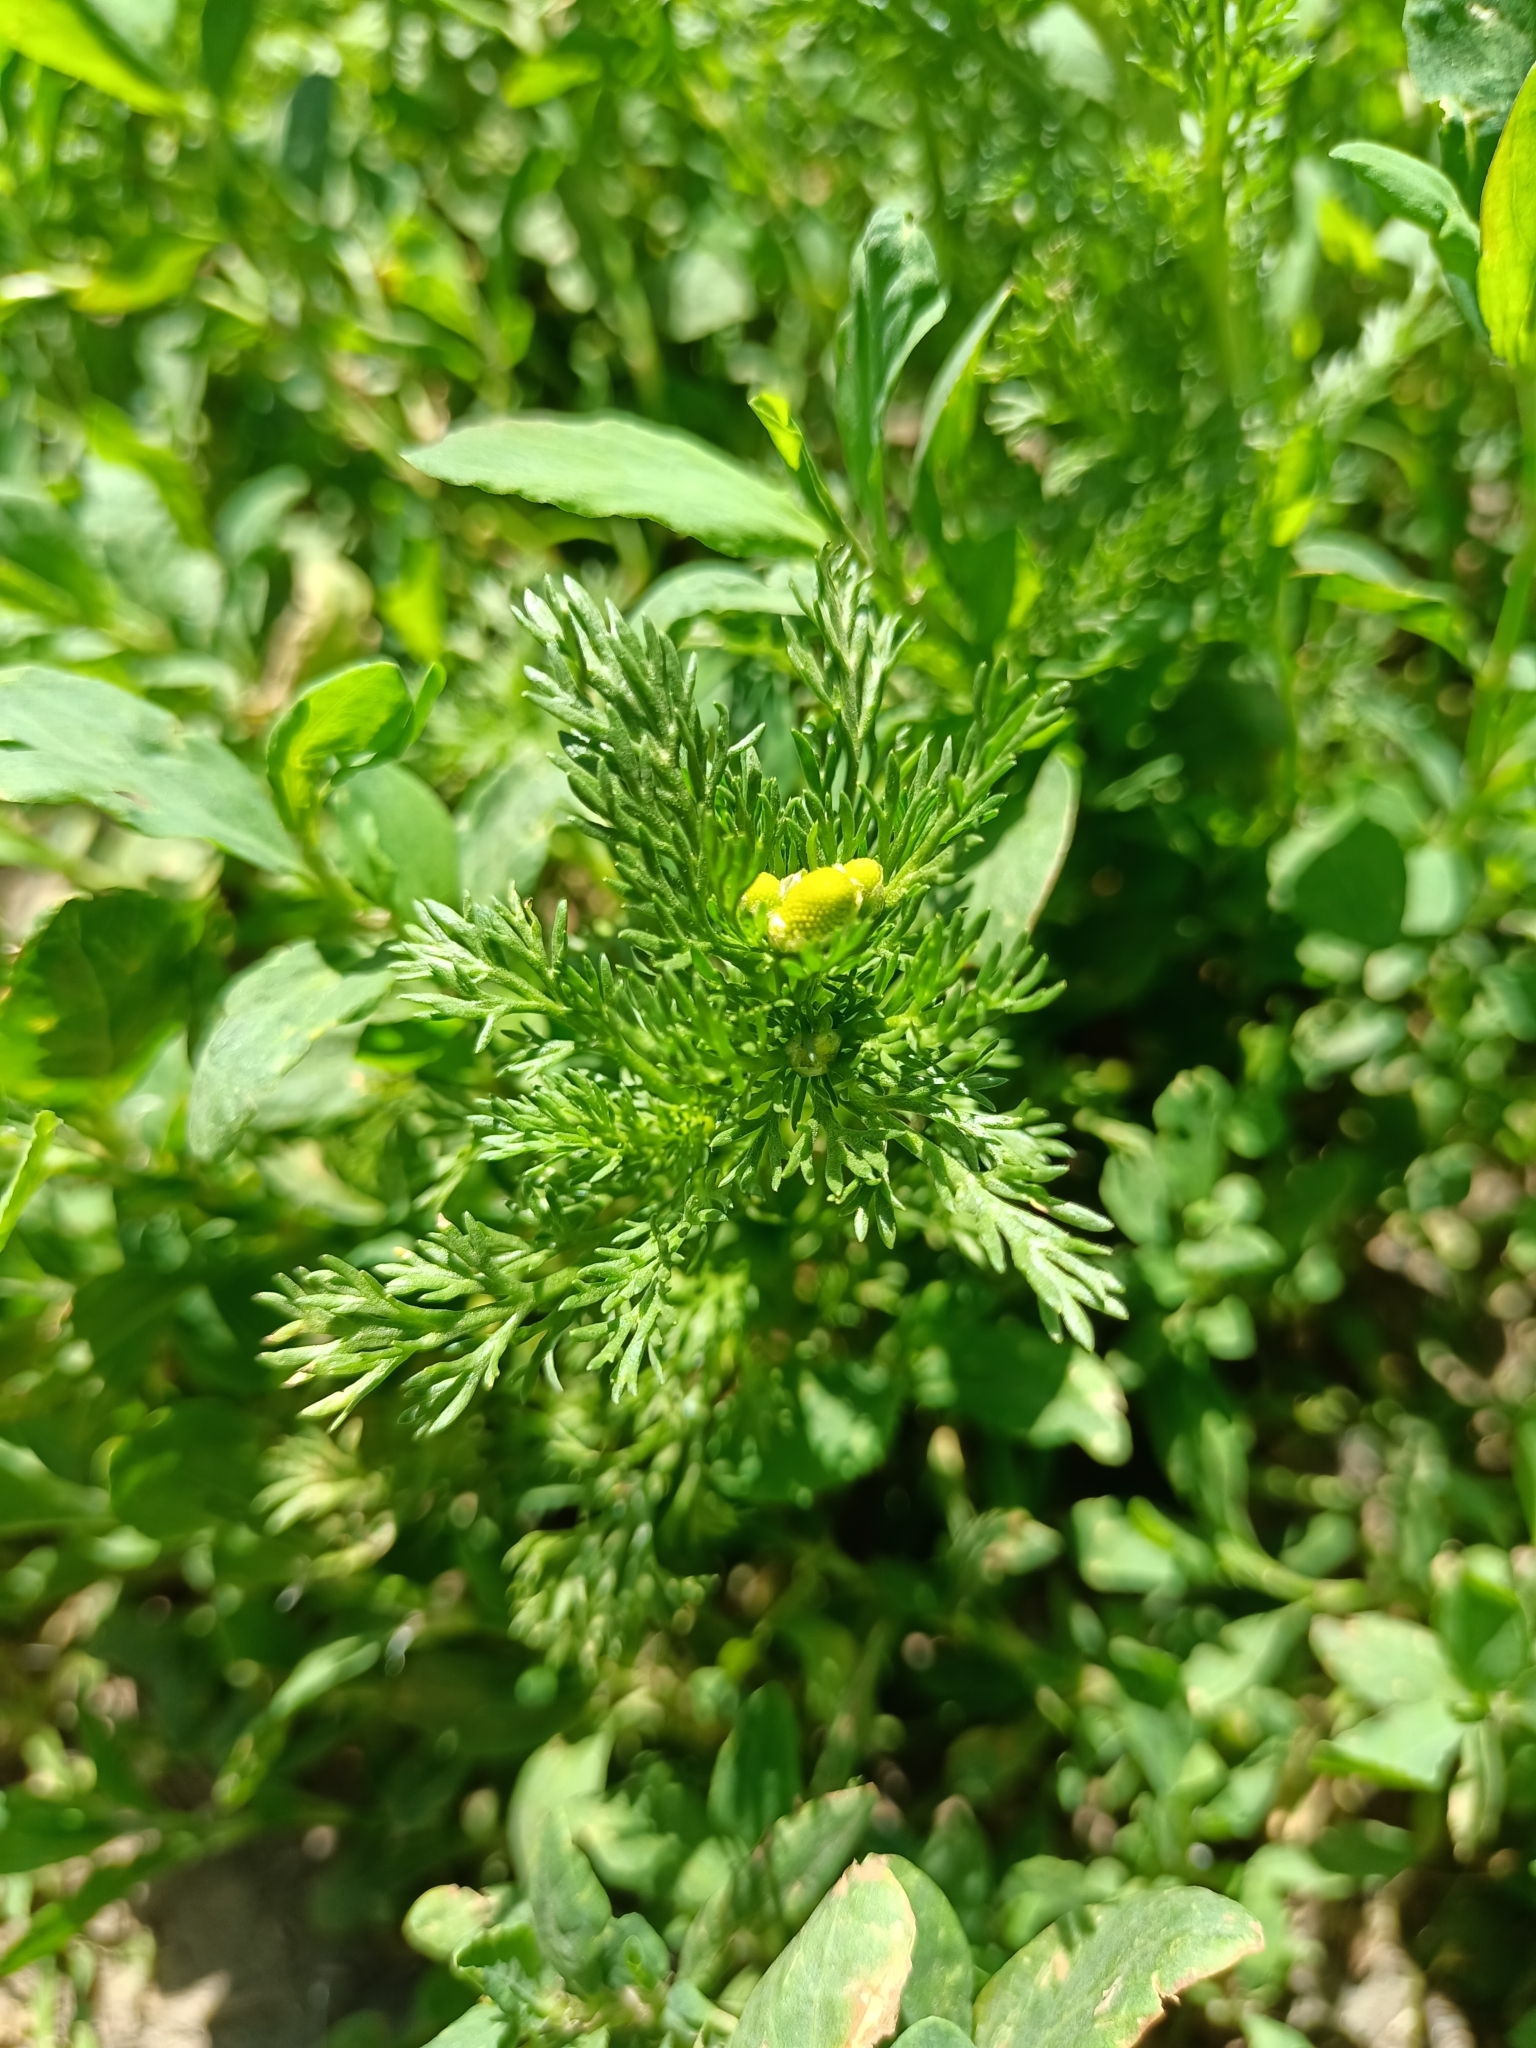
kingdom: Plantae
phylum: Tracheophyta
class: Magnoliopsida
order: Asterales
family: Asteraceae
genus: Matricaria
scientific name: Matricaria discoidea
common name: Disc mayweed
